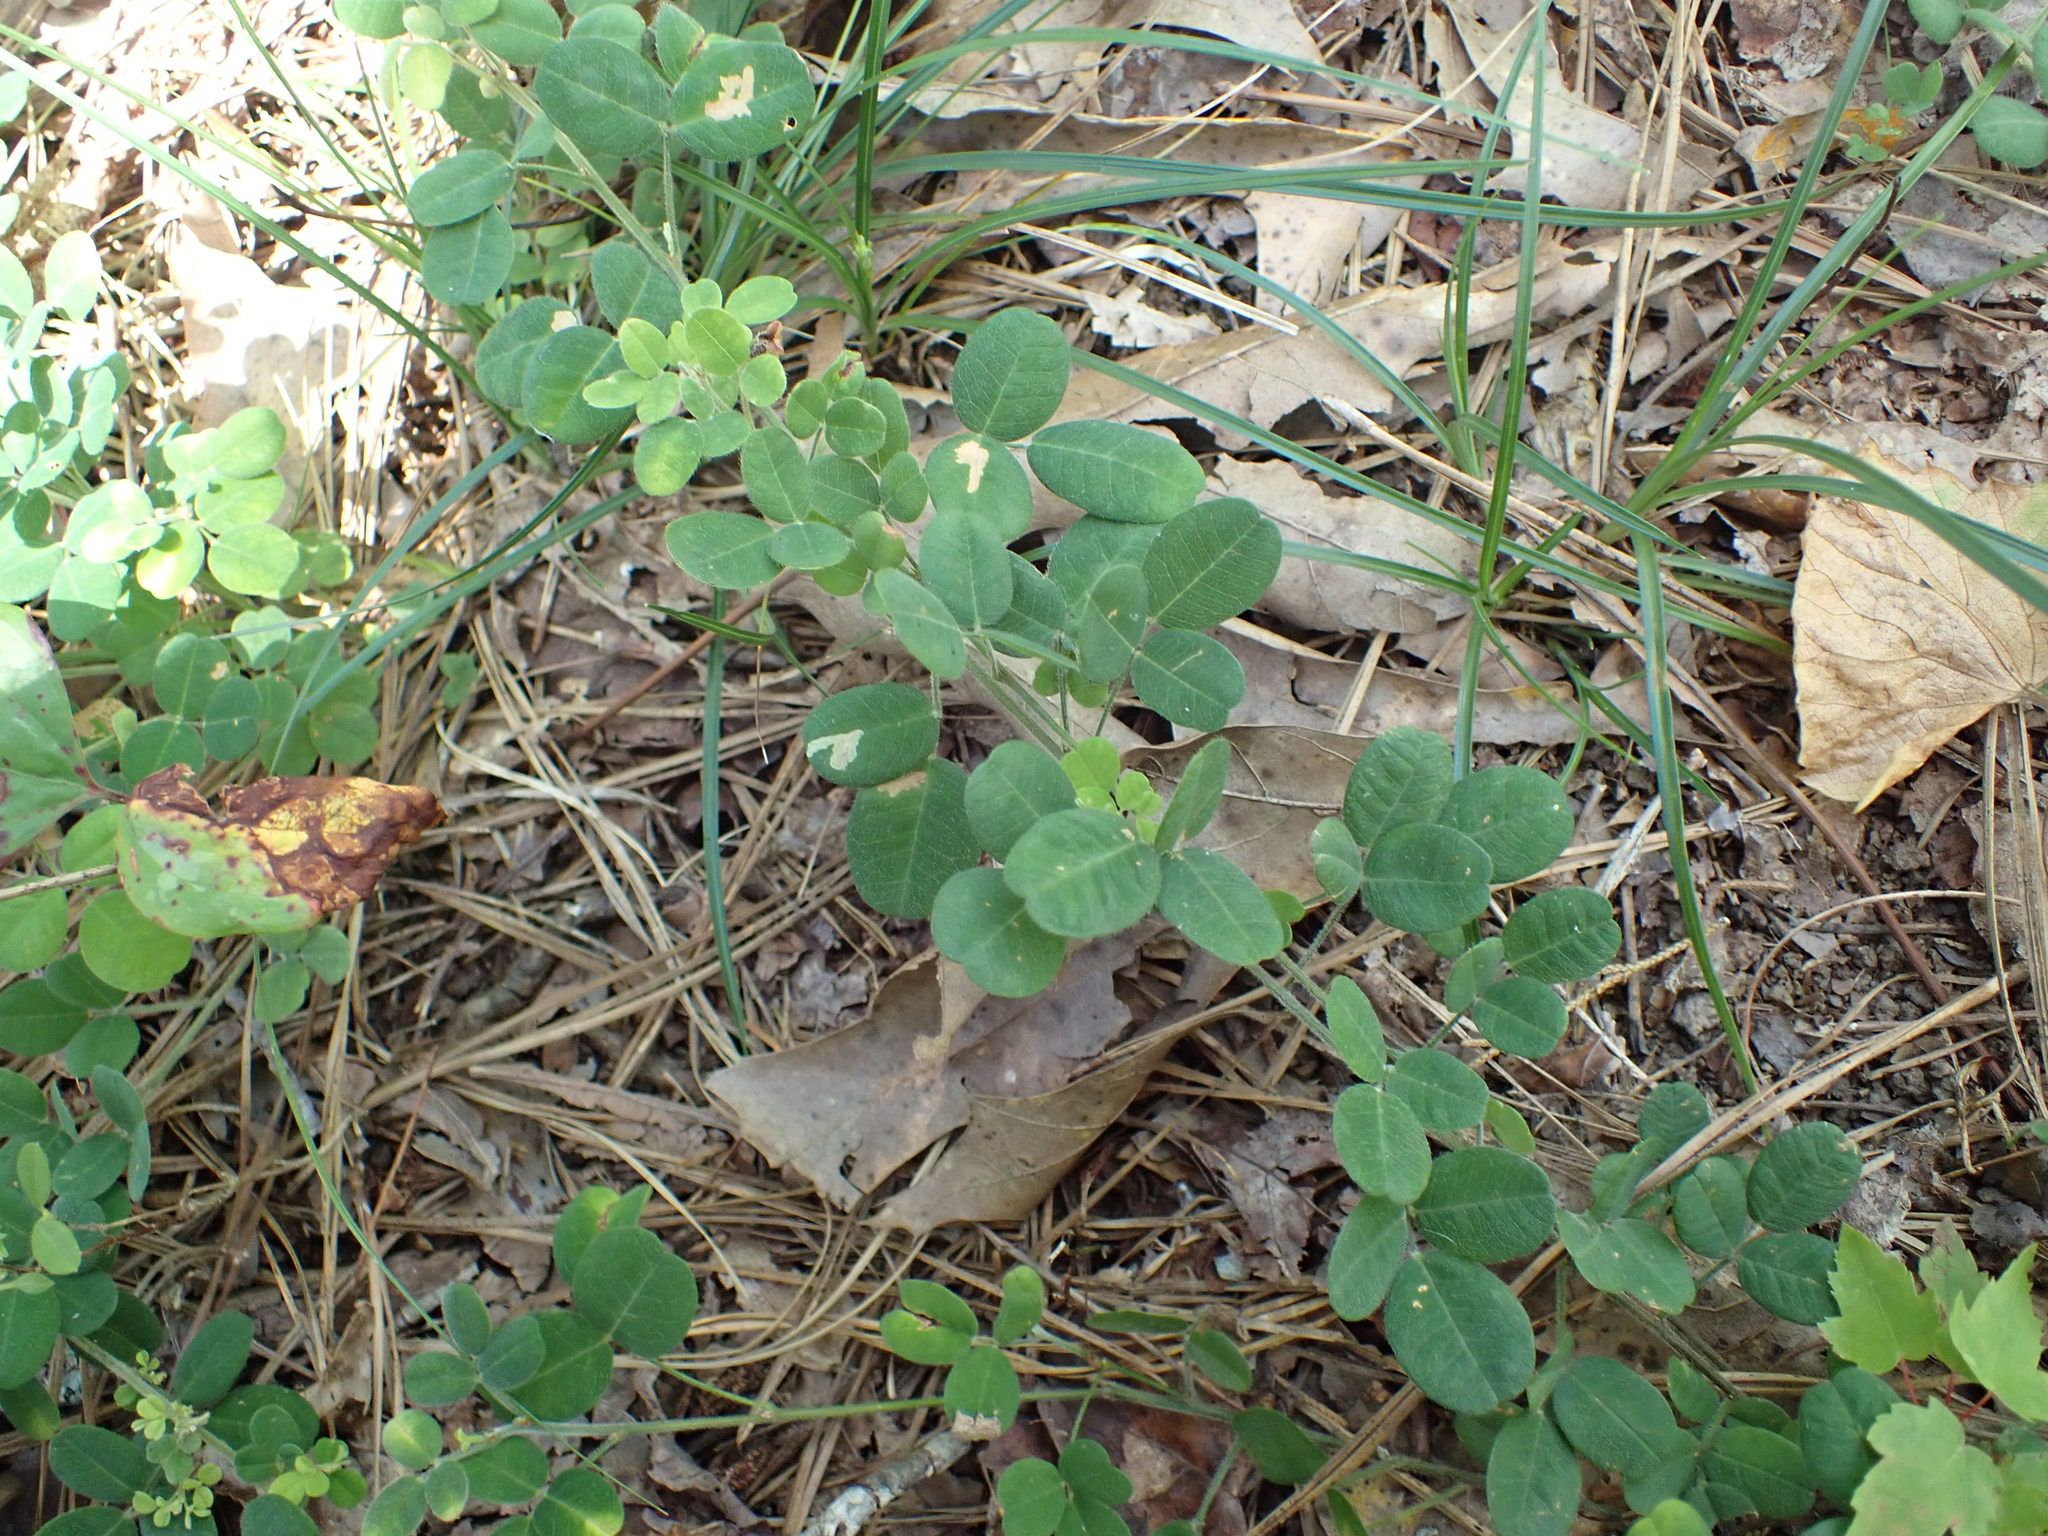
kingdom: Animalia
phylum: Arthropoda
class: Insecta
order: Lepidoptera
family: Gracillariidae
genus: Parectopa
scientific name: Parectopa lespedezaefoliella
